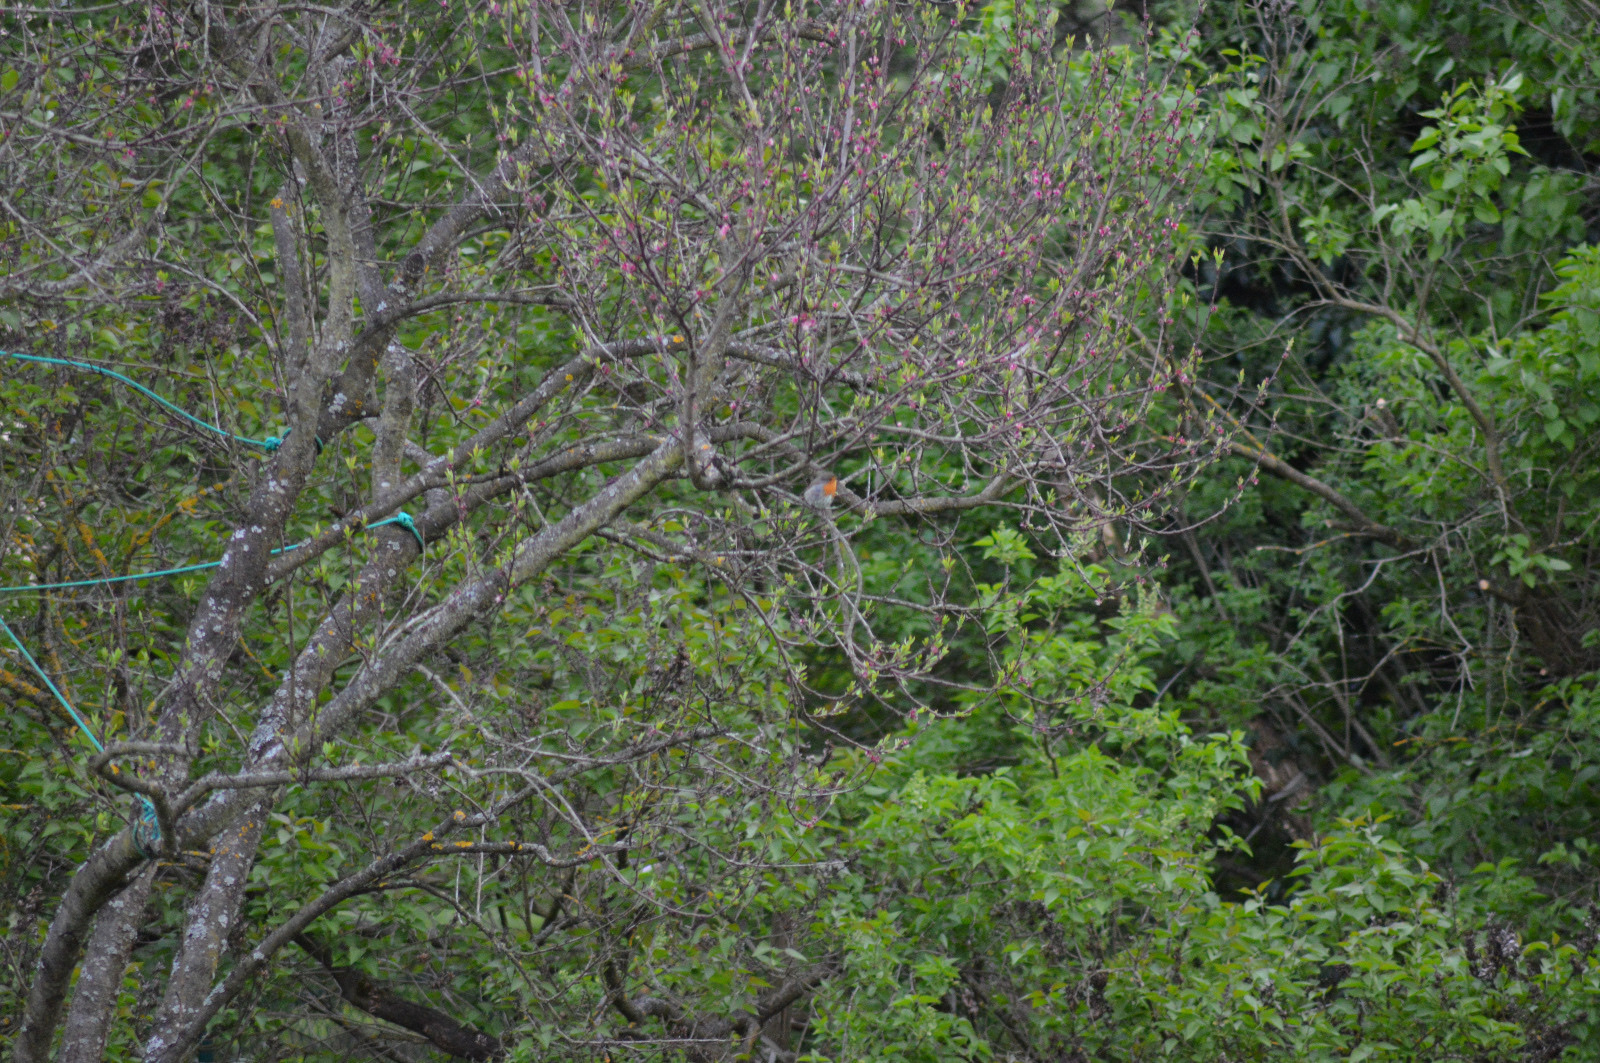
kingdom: Animalia
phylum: Chordata
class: Aves
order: Passeriformes
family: Muscicapidae
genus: Erithacus
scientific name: Erithacus rubecula
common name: European robin
